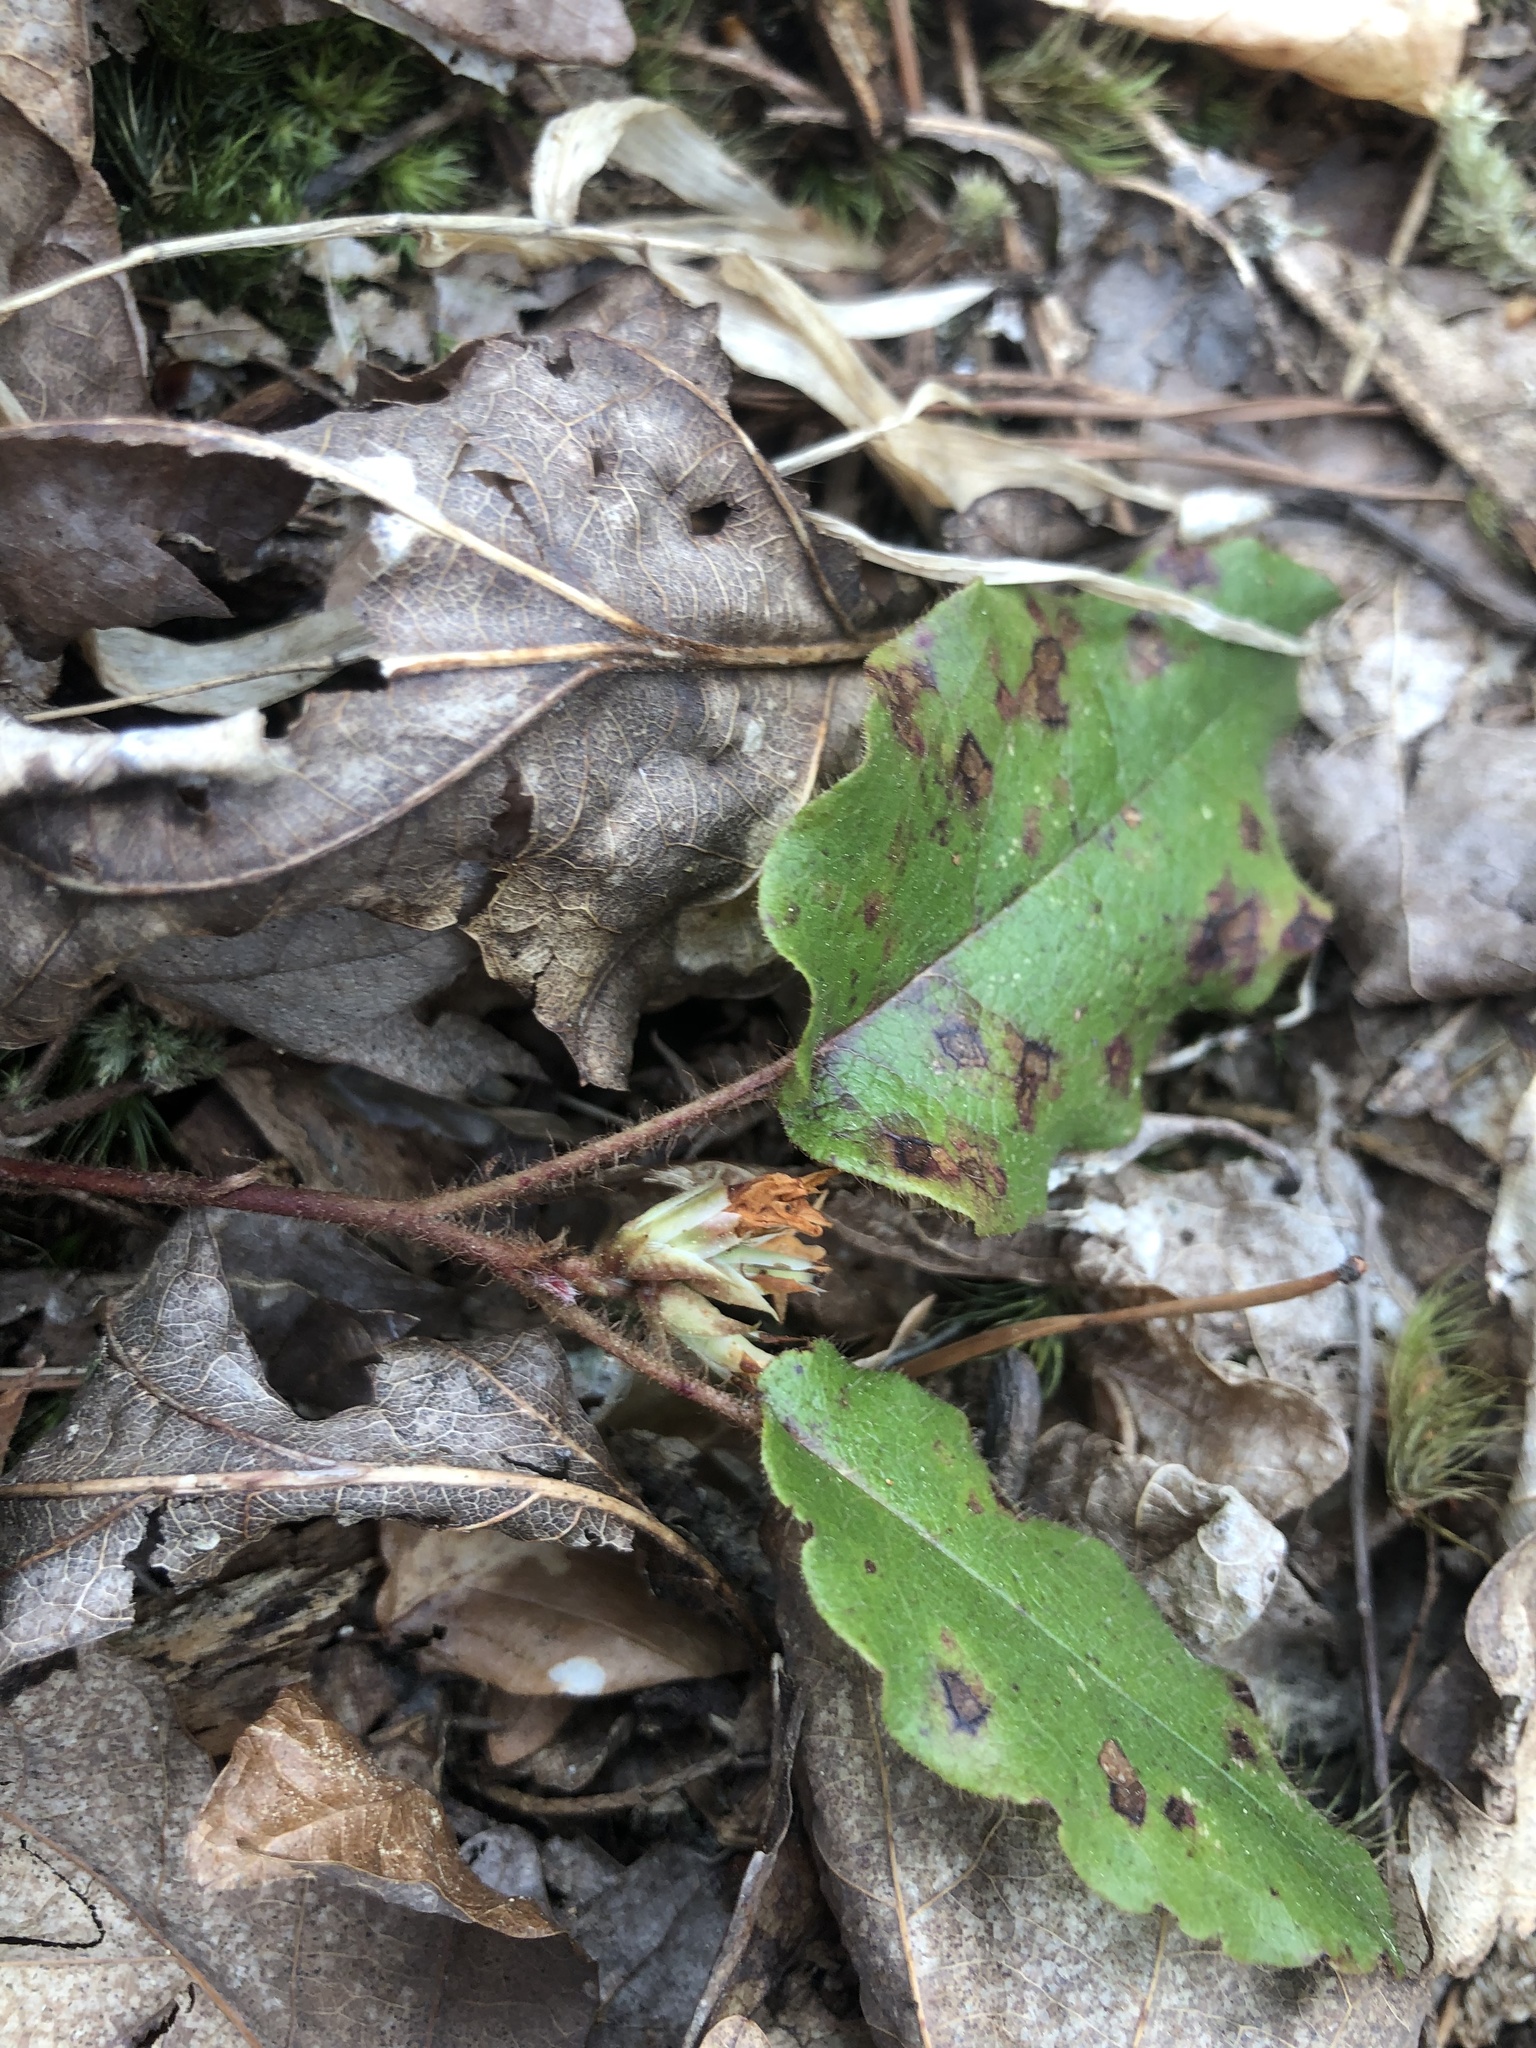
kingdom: Plantae
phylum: Tracheophyta
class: Magnoliopsida
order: Ericales
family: Ericaceae
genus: Epigaea
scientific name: Epigaea repens
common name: Gravelroot
